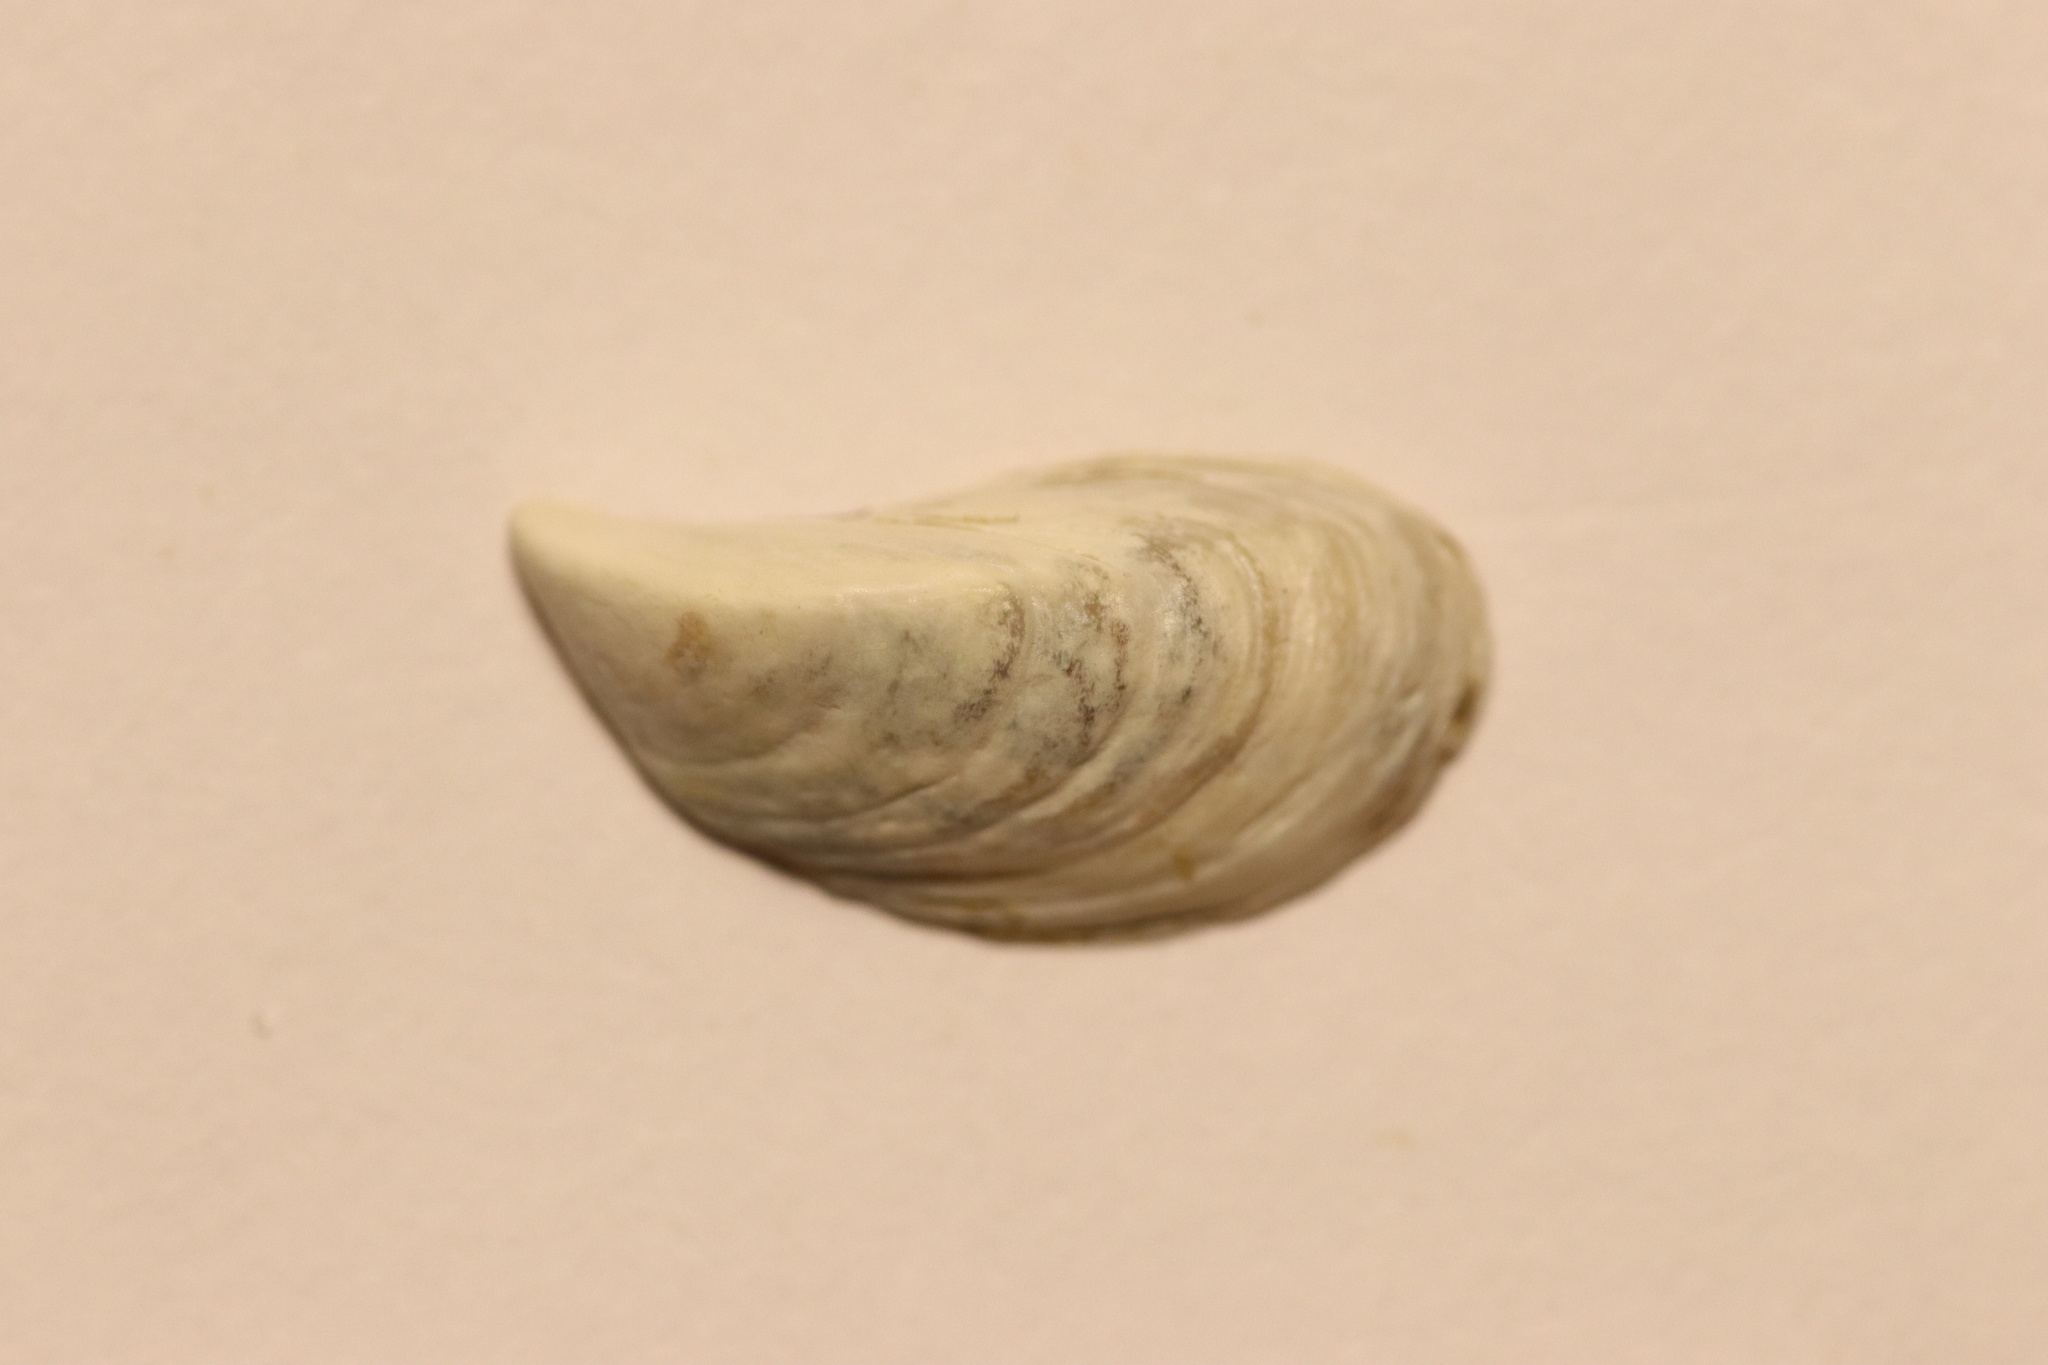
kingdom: Animalia
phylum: Mollusca
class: Bivalvia
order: Myida
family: Dreissenidae
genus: Dreissena
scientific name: Dreissena polymorpha
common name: Zebra mussel
